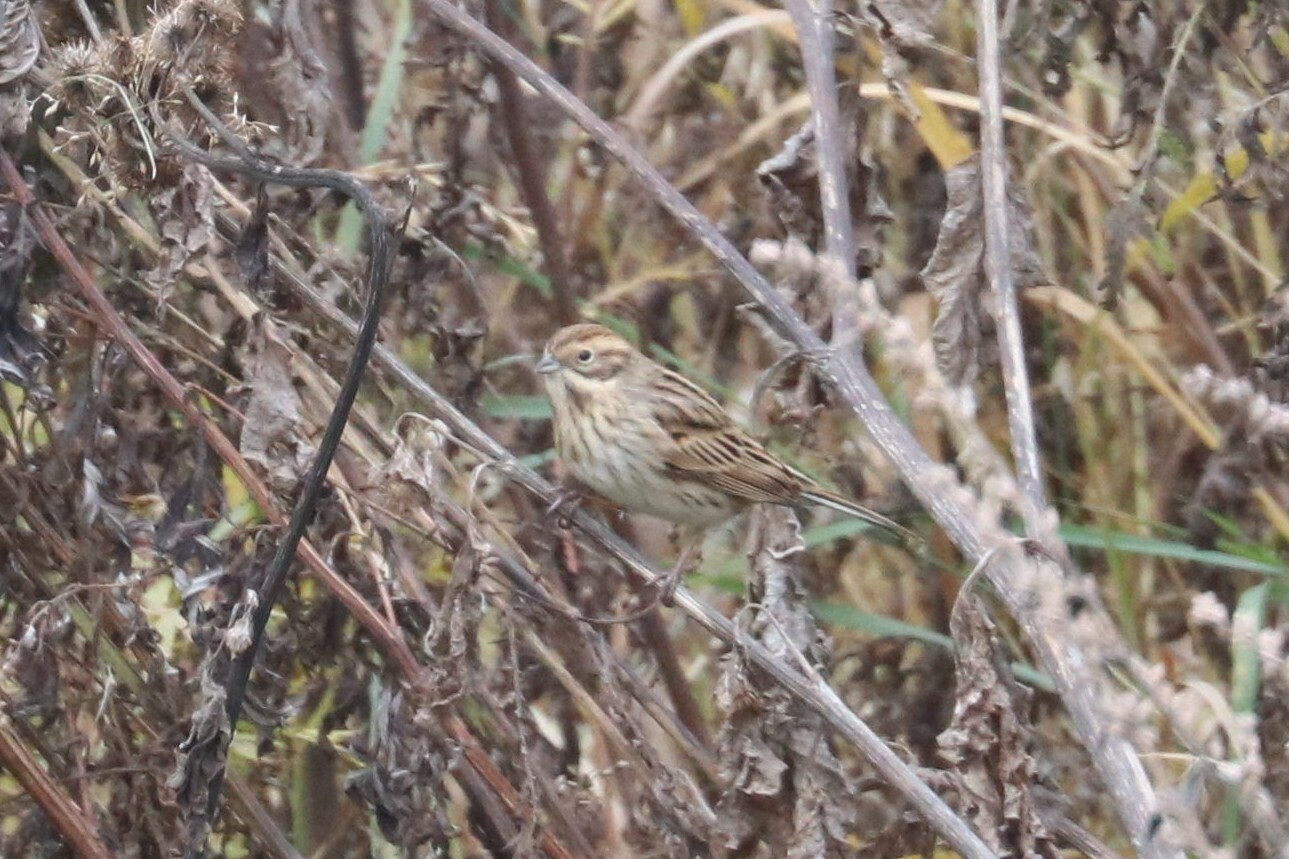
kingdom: Animalia
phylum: Chordata
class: Aves
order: Passeriformes
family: Emberizidae
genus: Emberiza
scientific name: Emberiza schoeniclus
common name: Reed bunting
